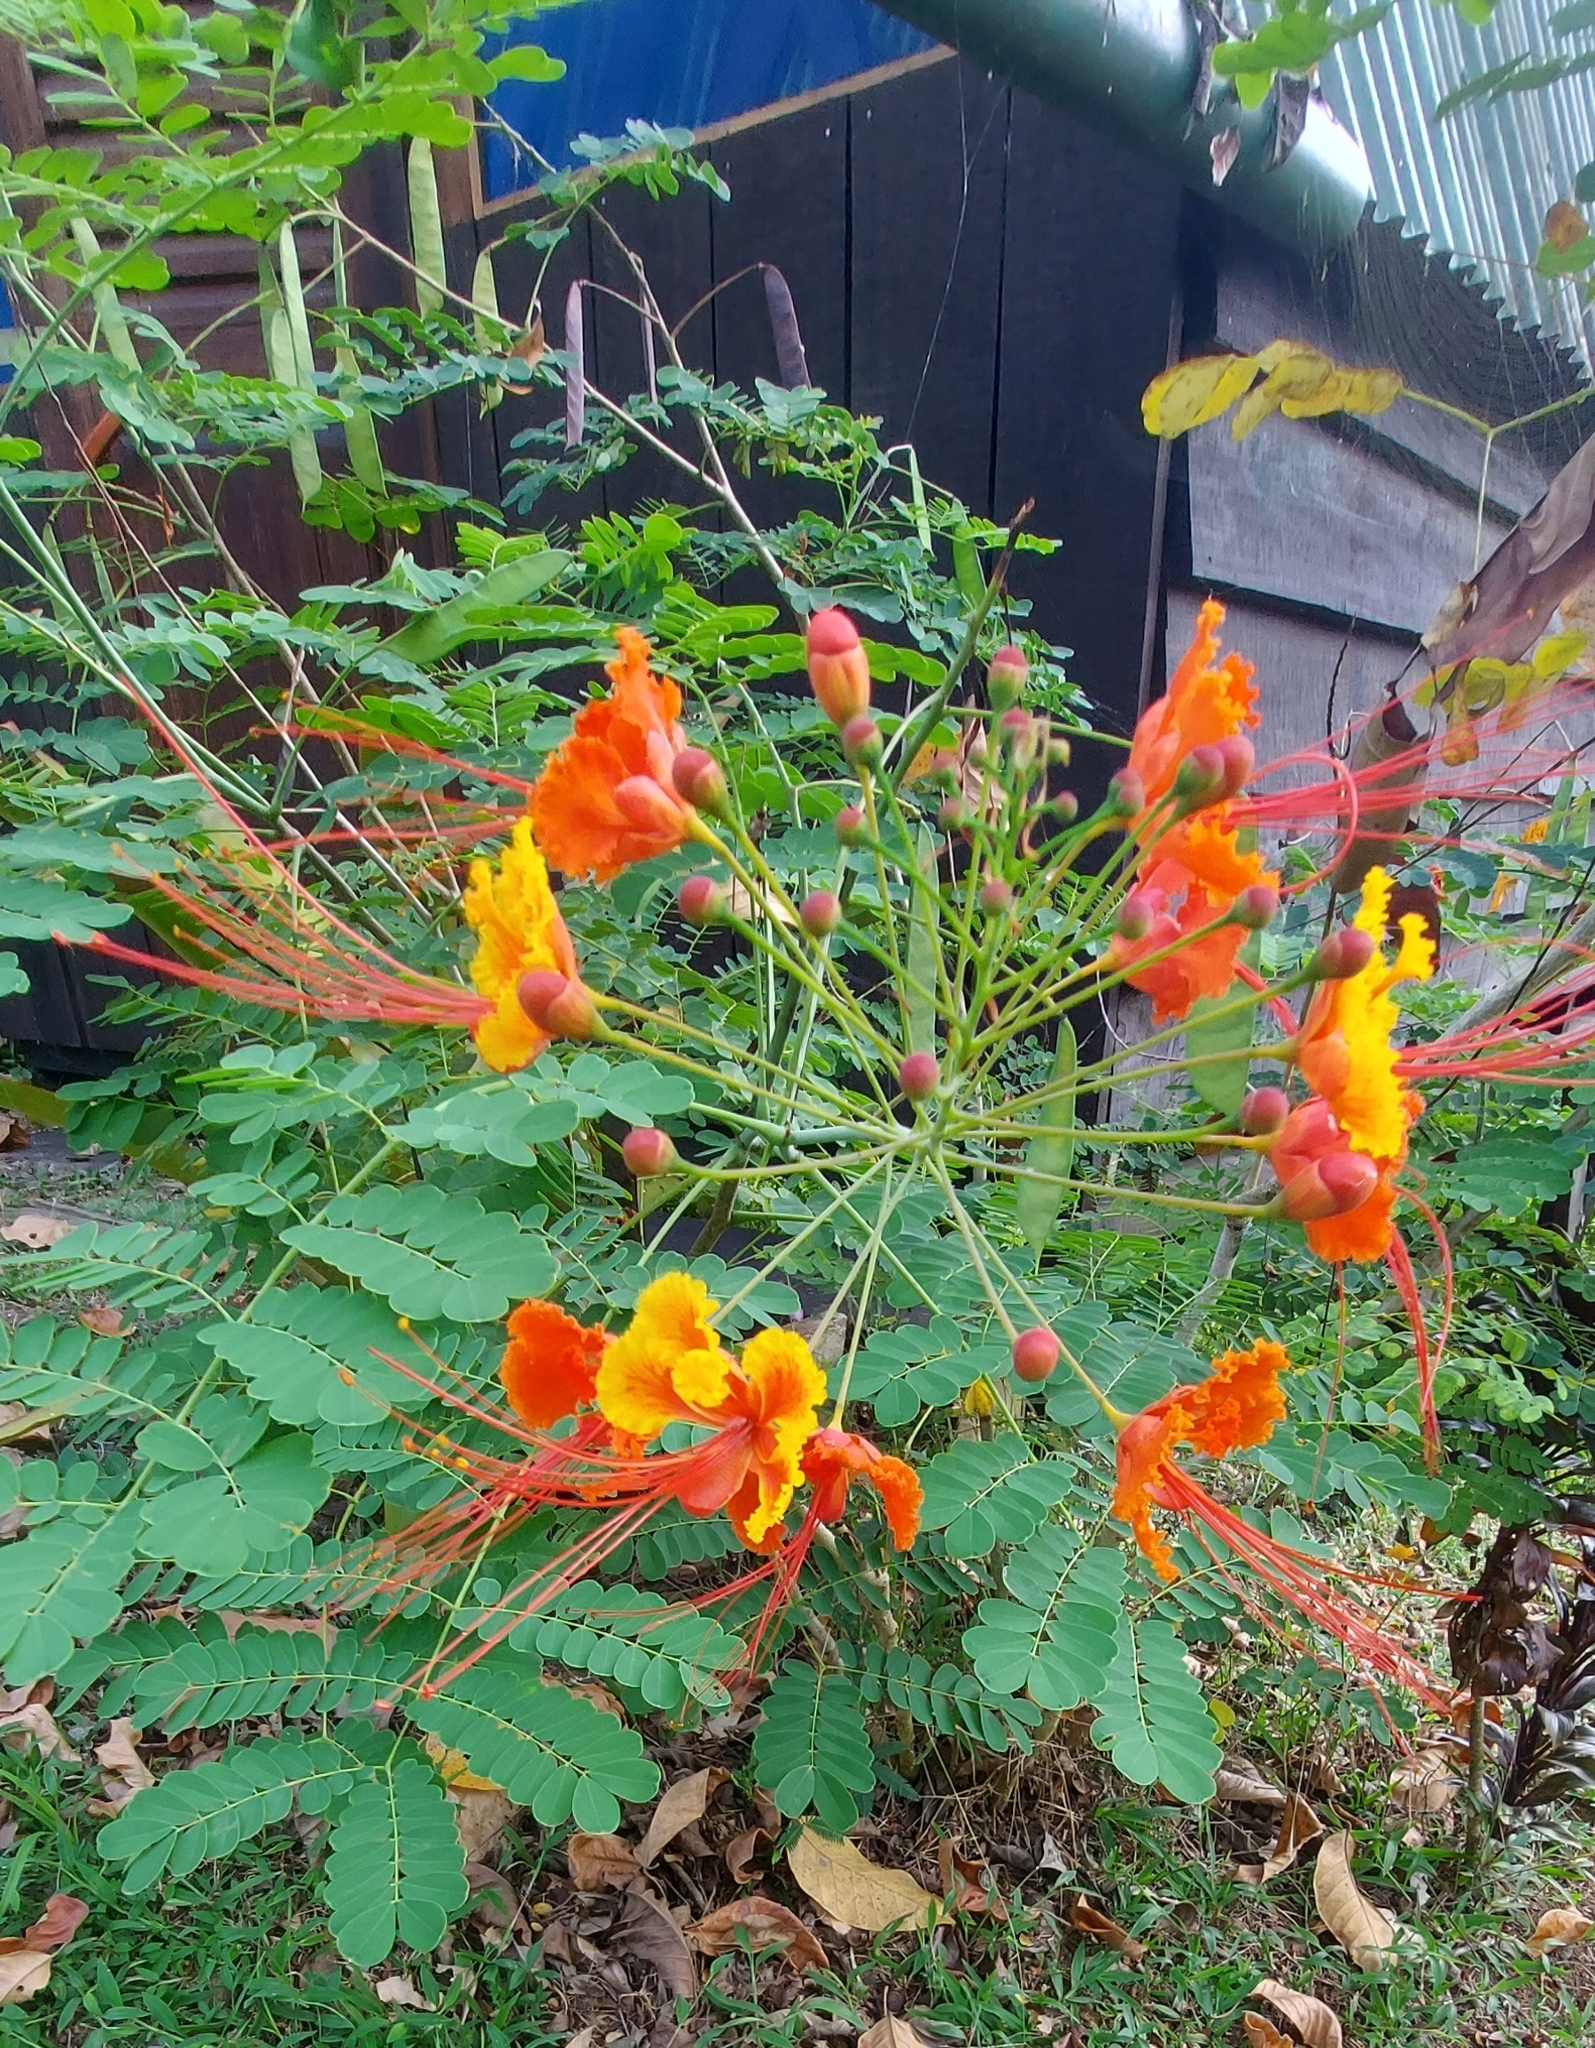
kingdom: Plantae
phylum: Tracheophyta
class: Magnoliopsida
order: Fabales
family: Fabaceae
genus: Caesalpinia
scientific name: Caesalpinia pulcherrima
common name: Pride-of-barbados
